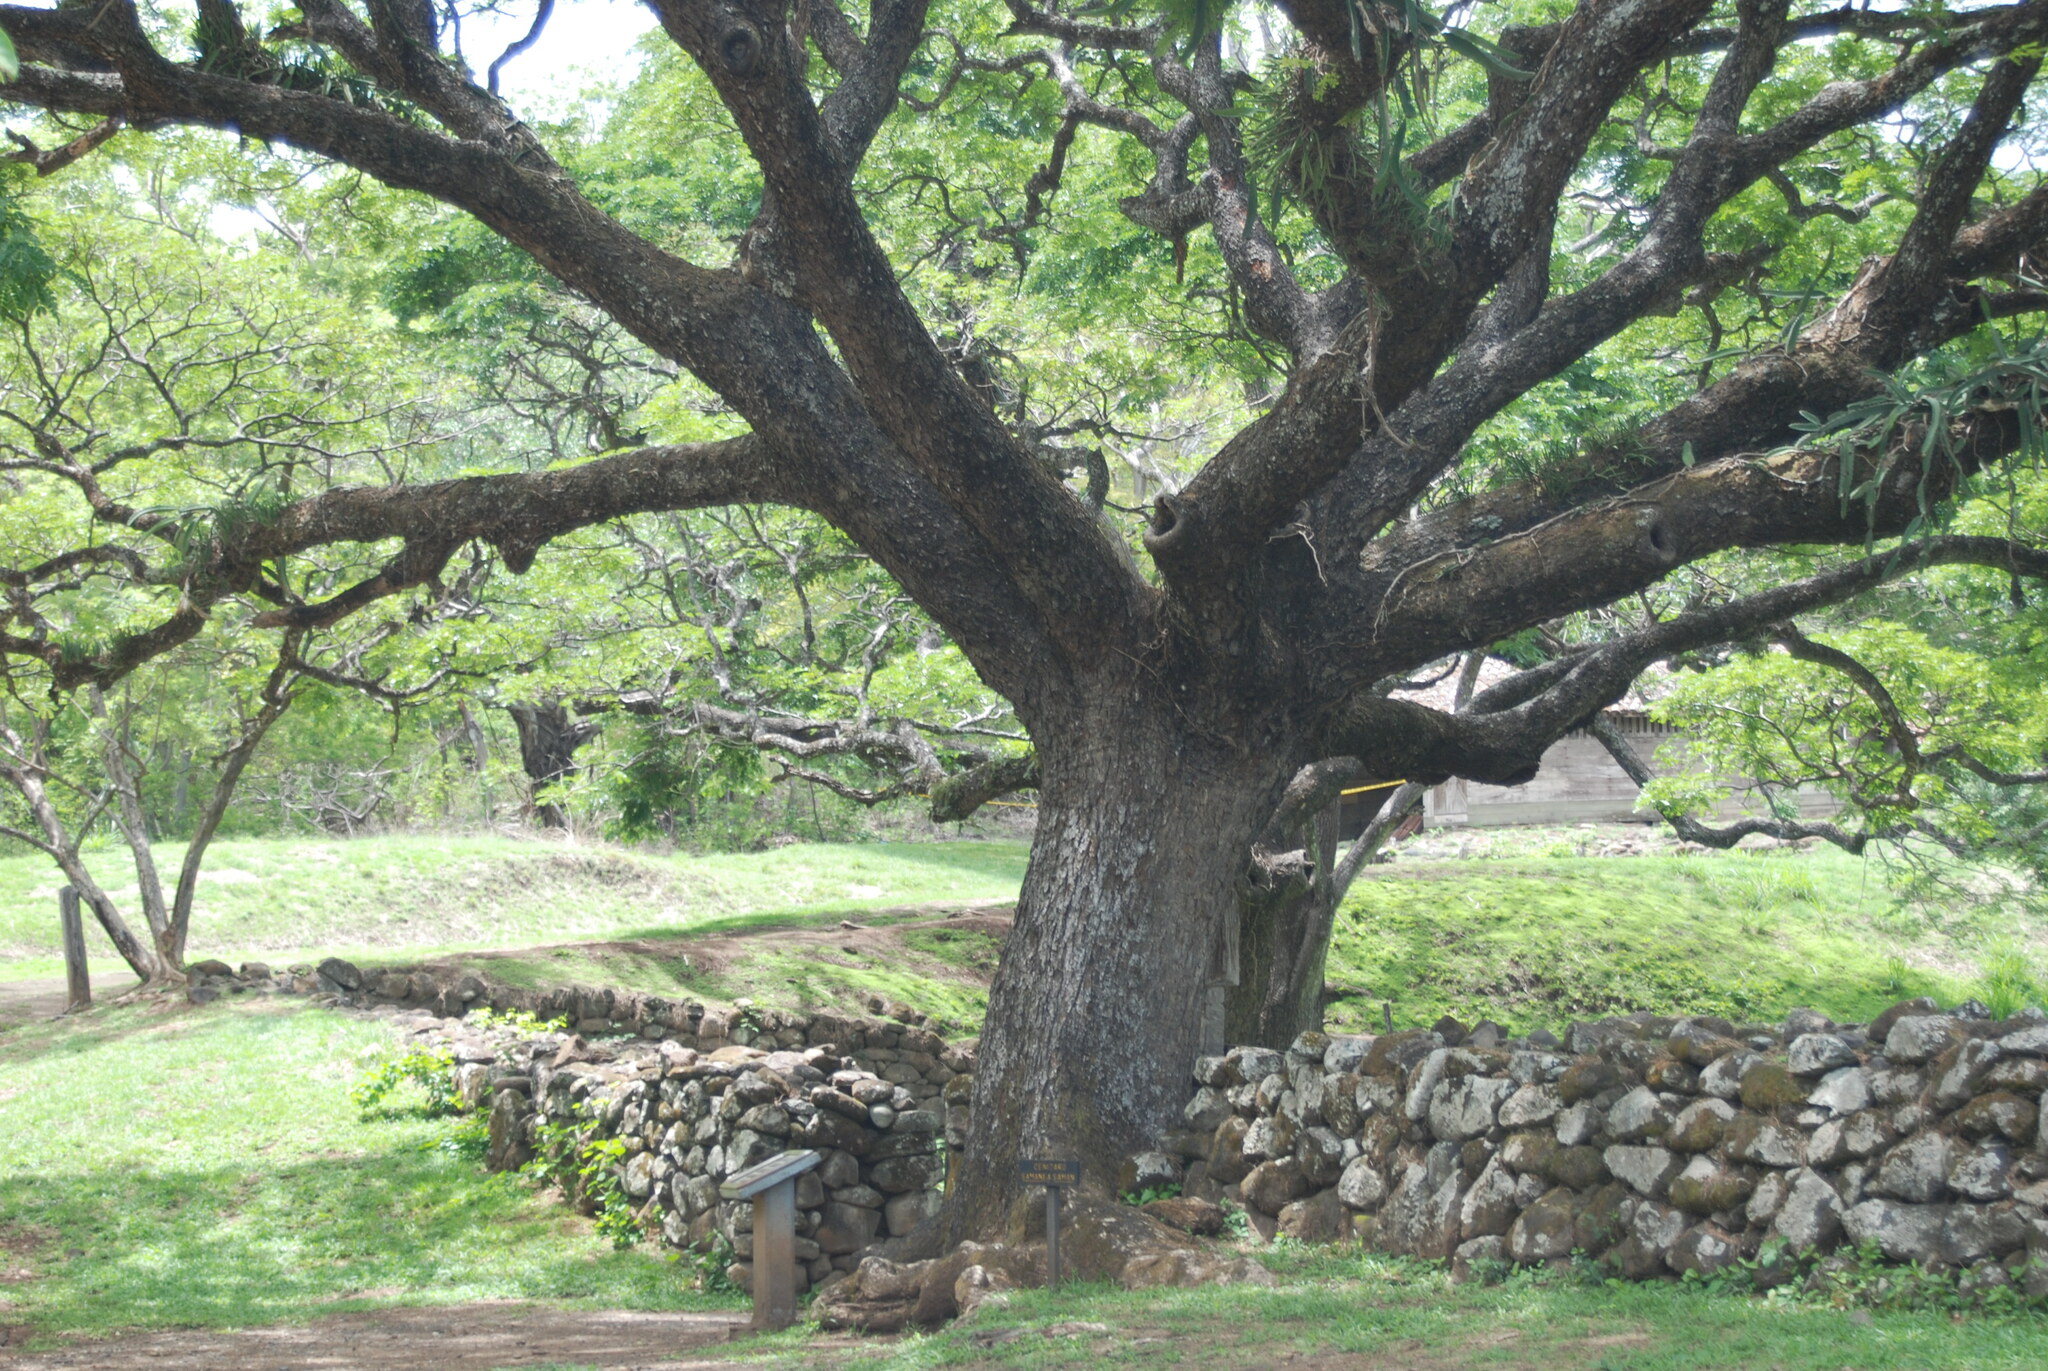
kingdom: Plantae
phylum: Tracheophyta
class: Magnoliopsida
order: Fabales
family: Fabaceae
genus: Samanea
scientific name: Samanea saman
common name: Raintree
